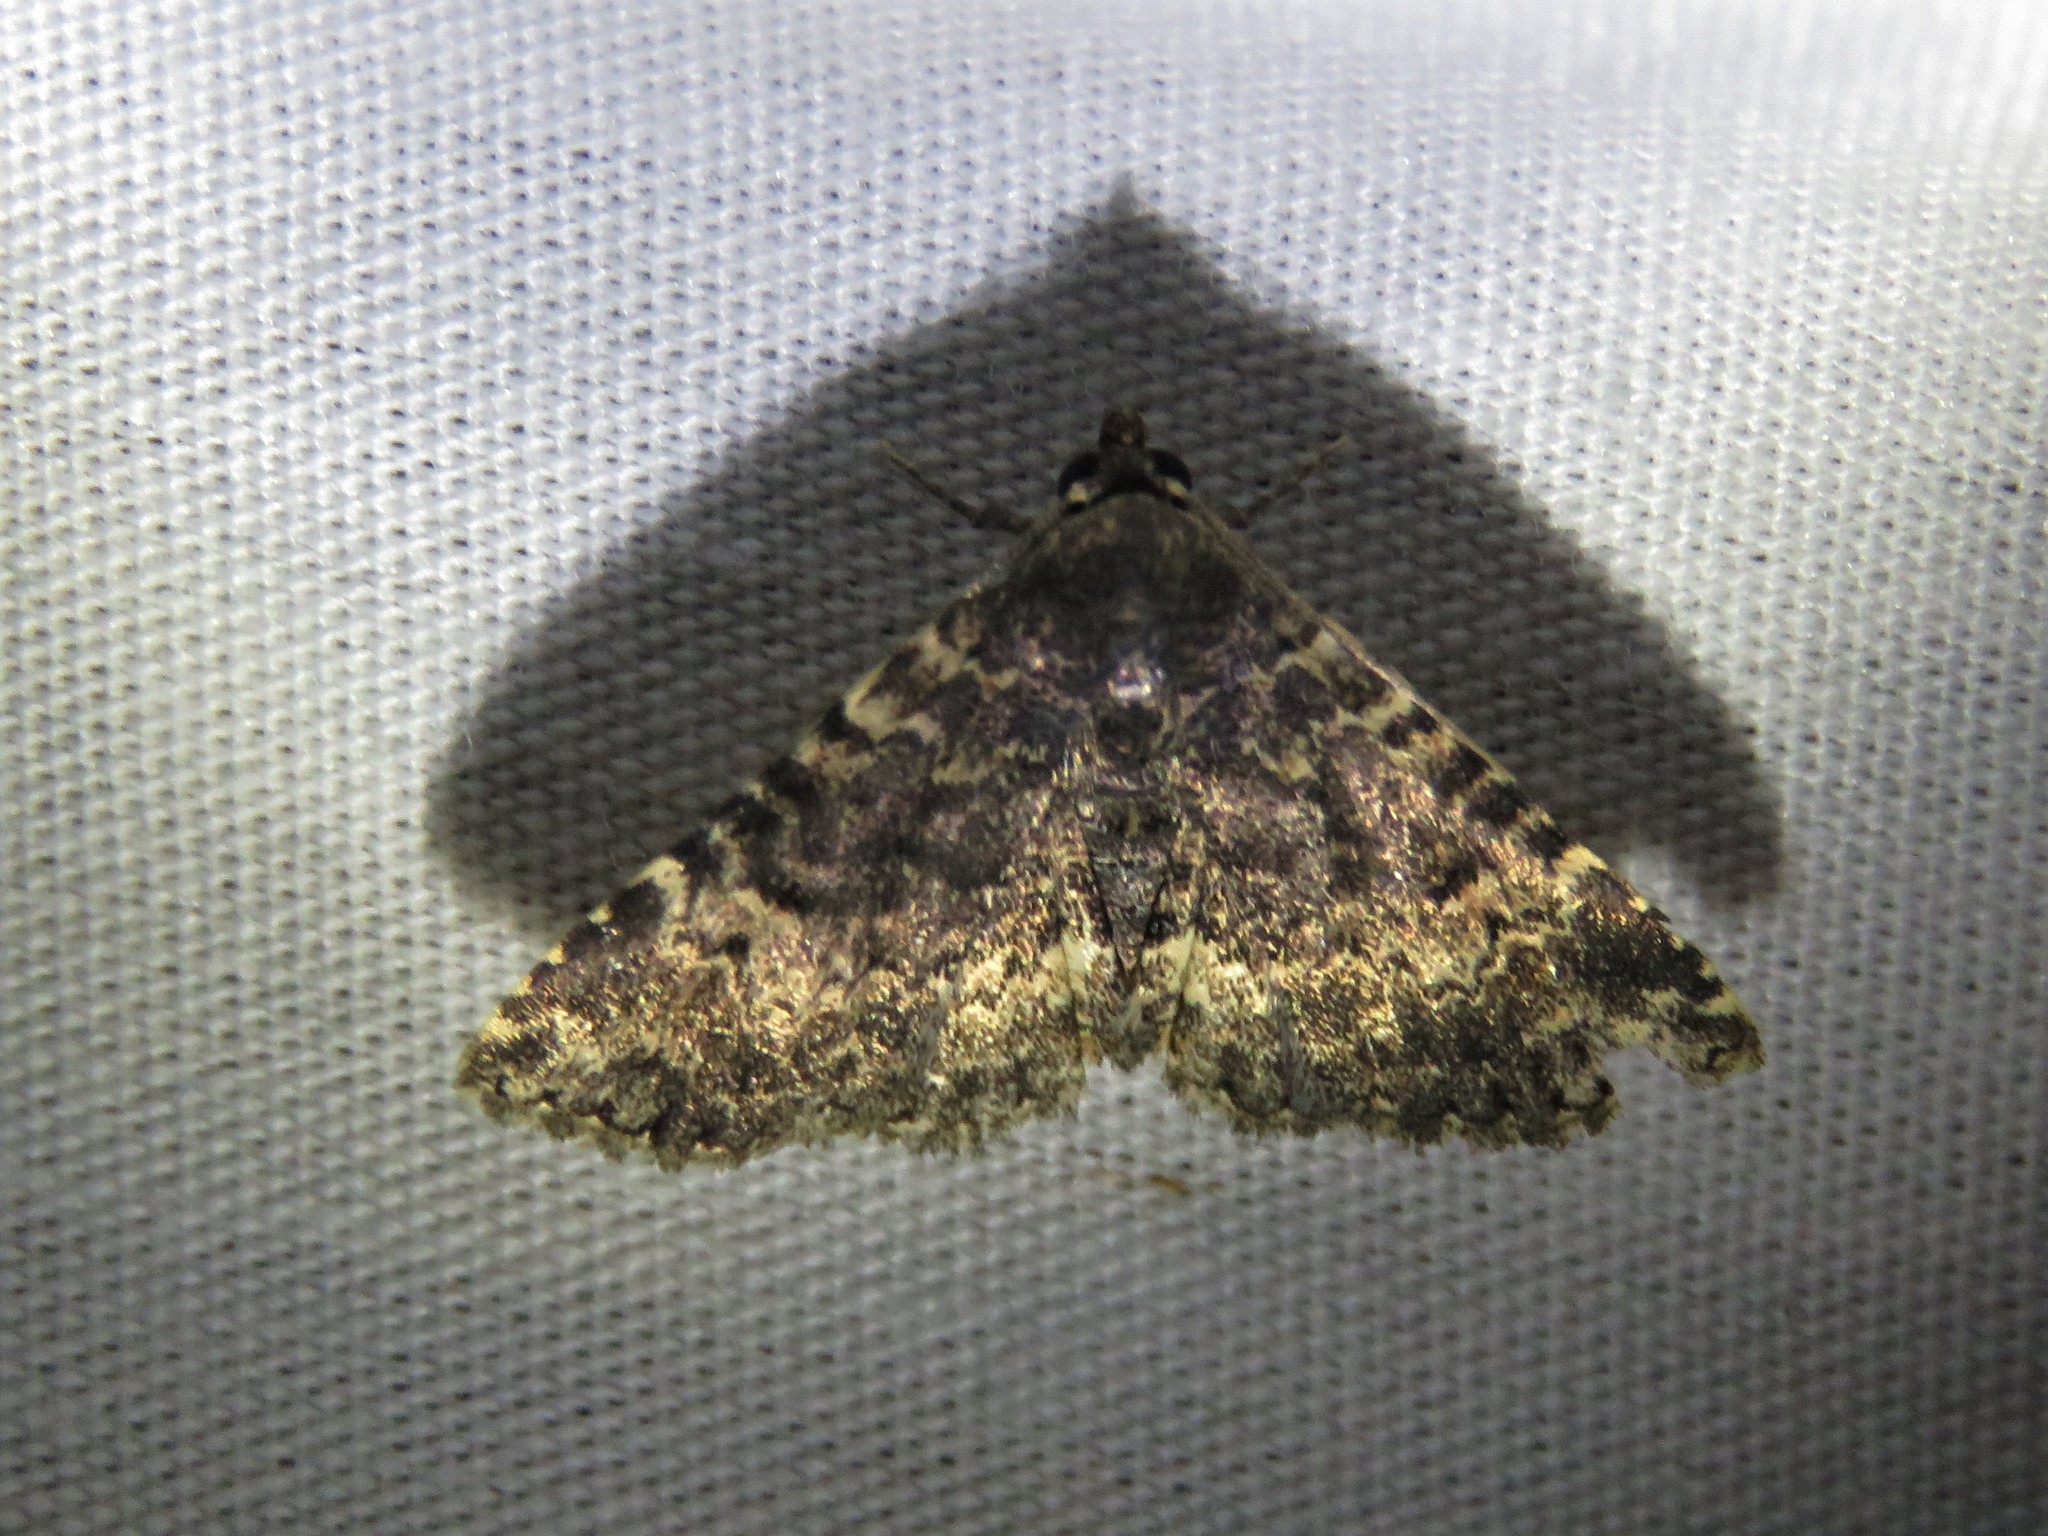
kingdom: Animalia
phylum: Arthropoda
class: Insecta
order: Lepidoptera
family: Erebidae
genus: Metalectra
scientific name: Metalectra diabolica
